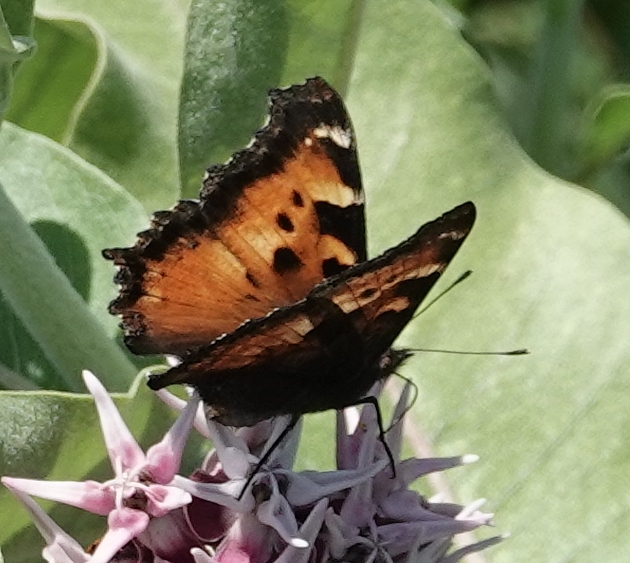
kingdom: Animalia
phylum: Arthropoda
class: Insecta
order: Lepidoptera
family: Nymphalidae
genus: Nymphalis
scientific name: Nymphalis californica
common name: California tortoiseshell
